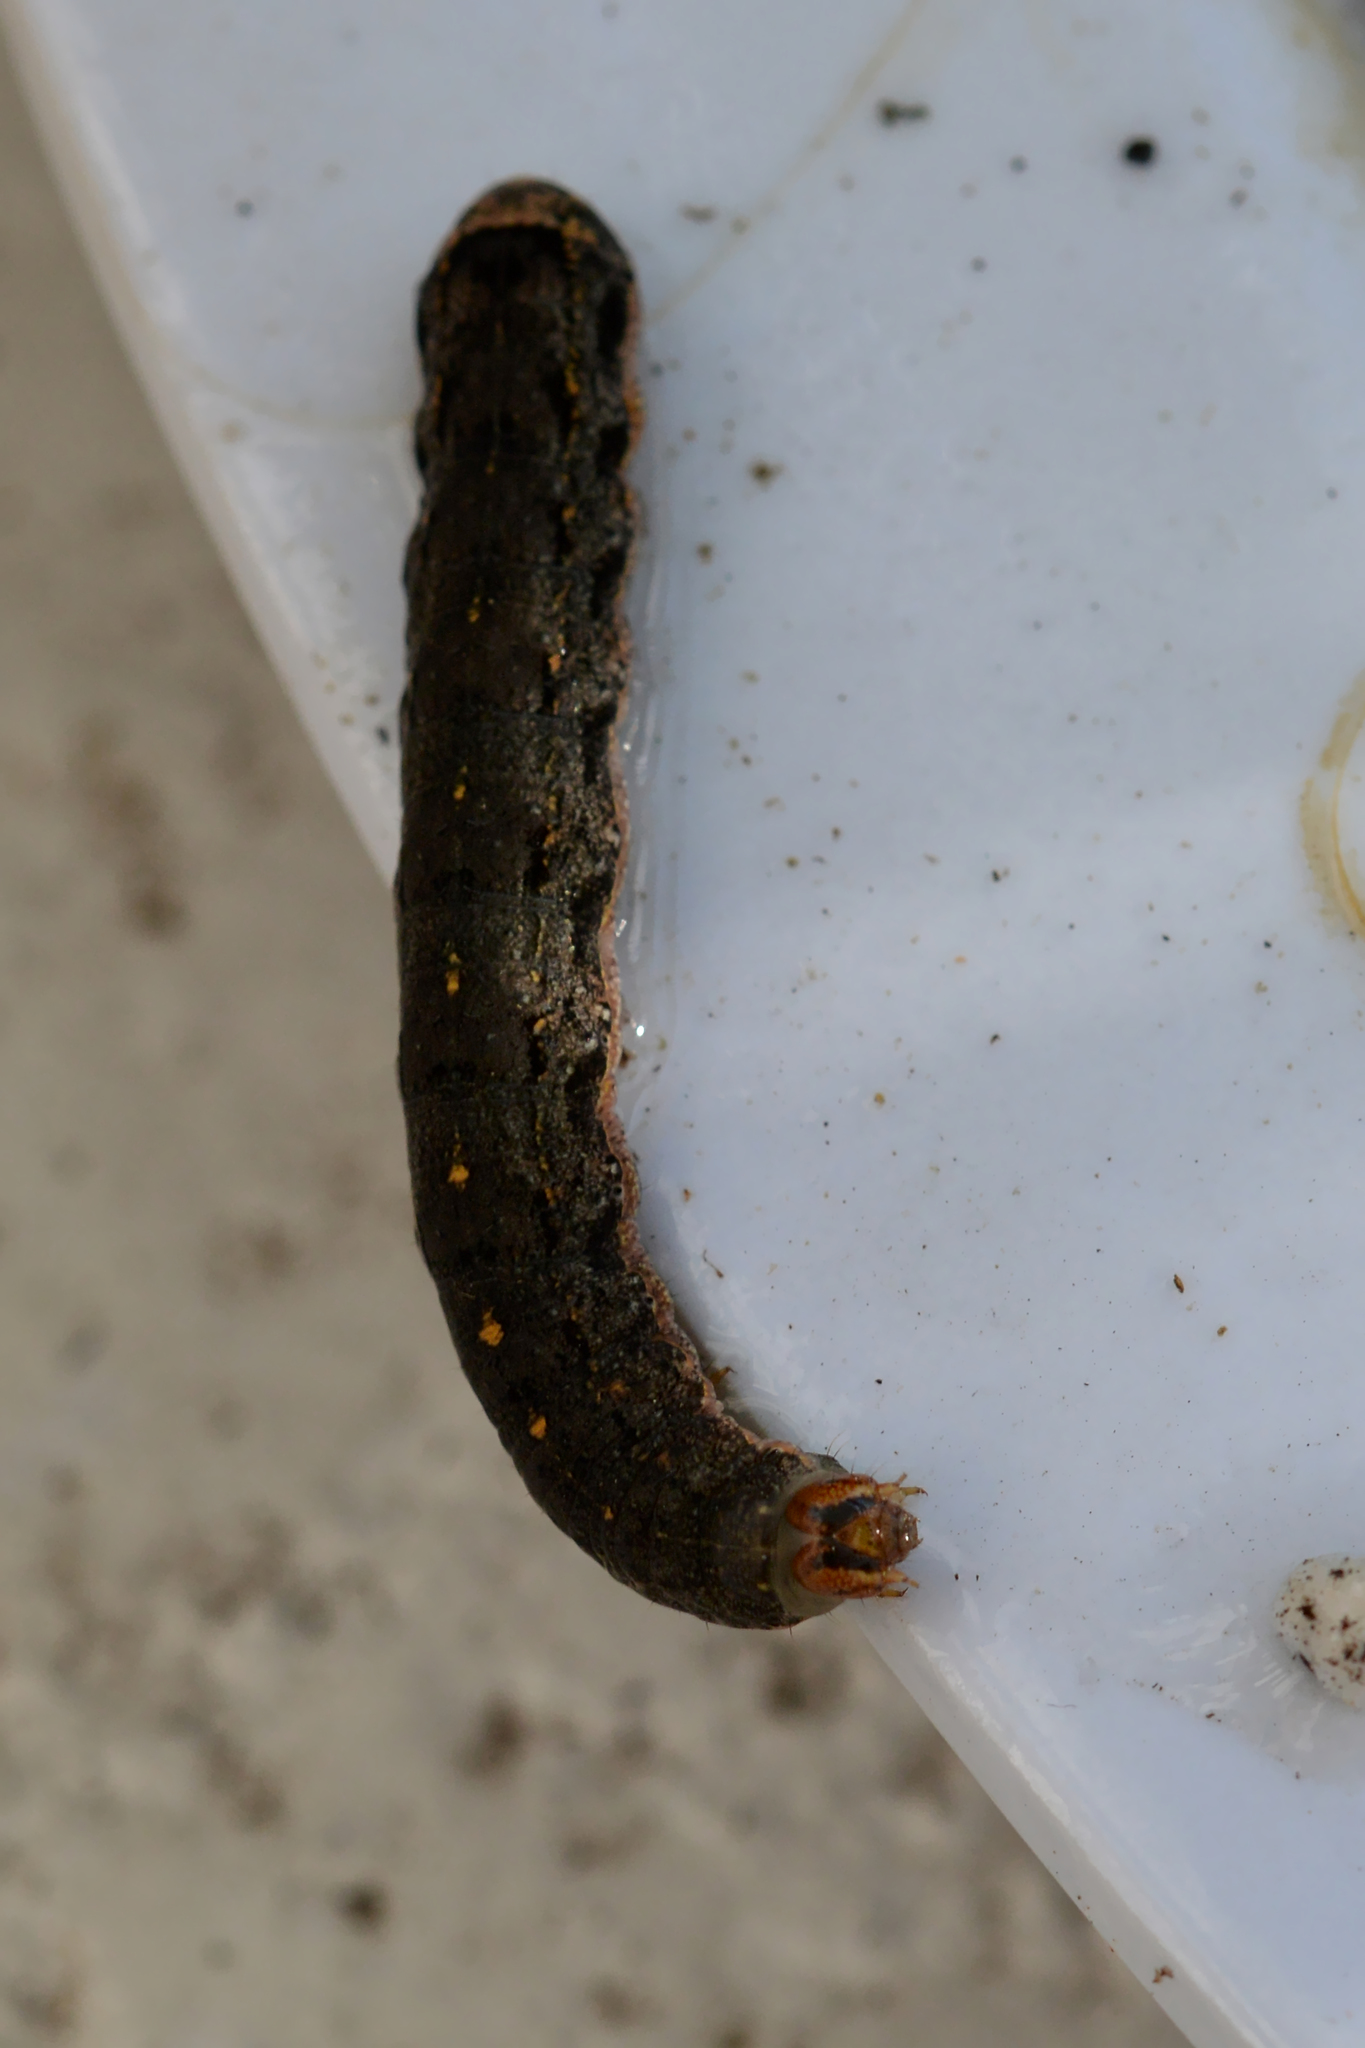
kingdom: Animalia
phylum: Arthropoda
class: Insecta
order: Lepidoptera
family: Noctuidae
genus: Peridroma
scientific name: Peridroma saucia
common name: Pearly underwing
